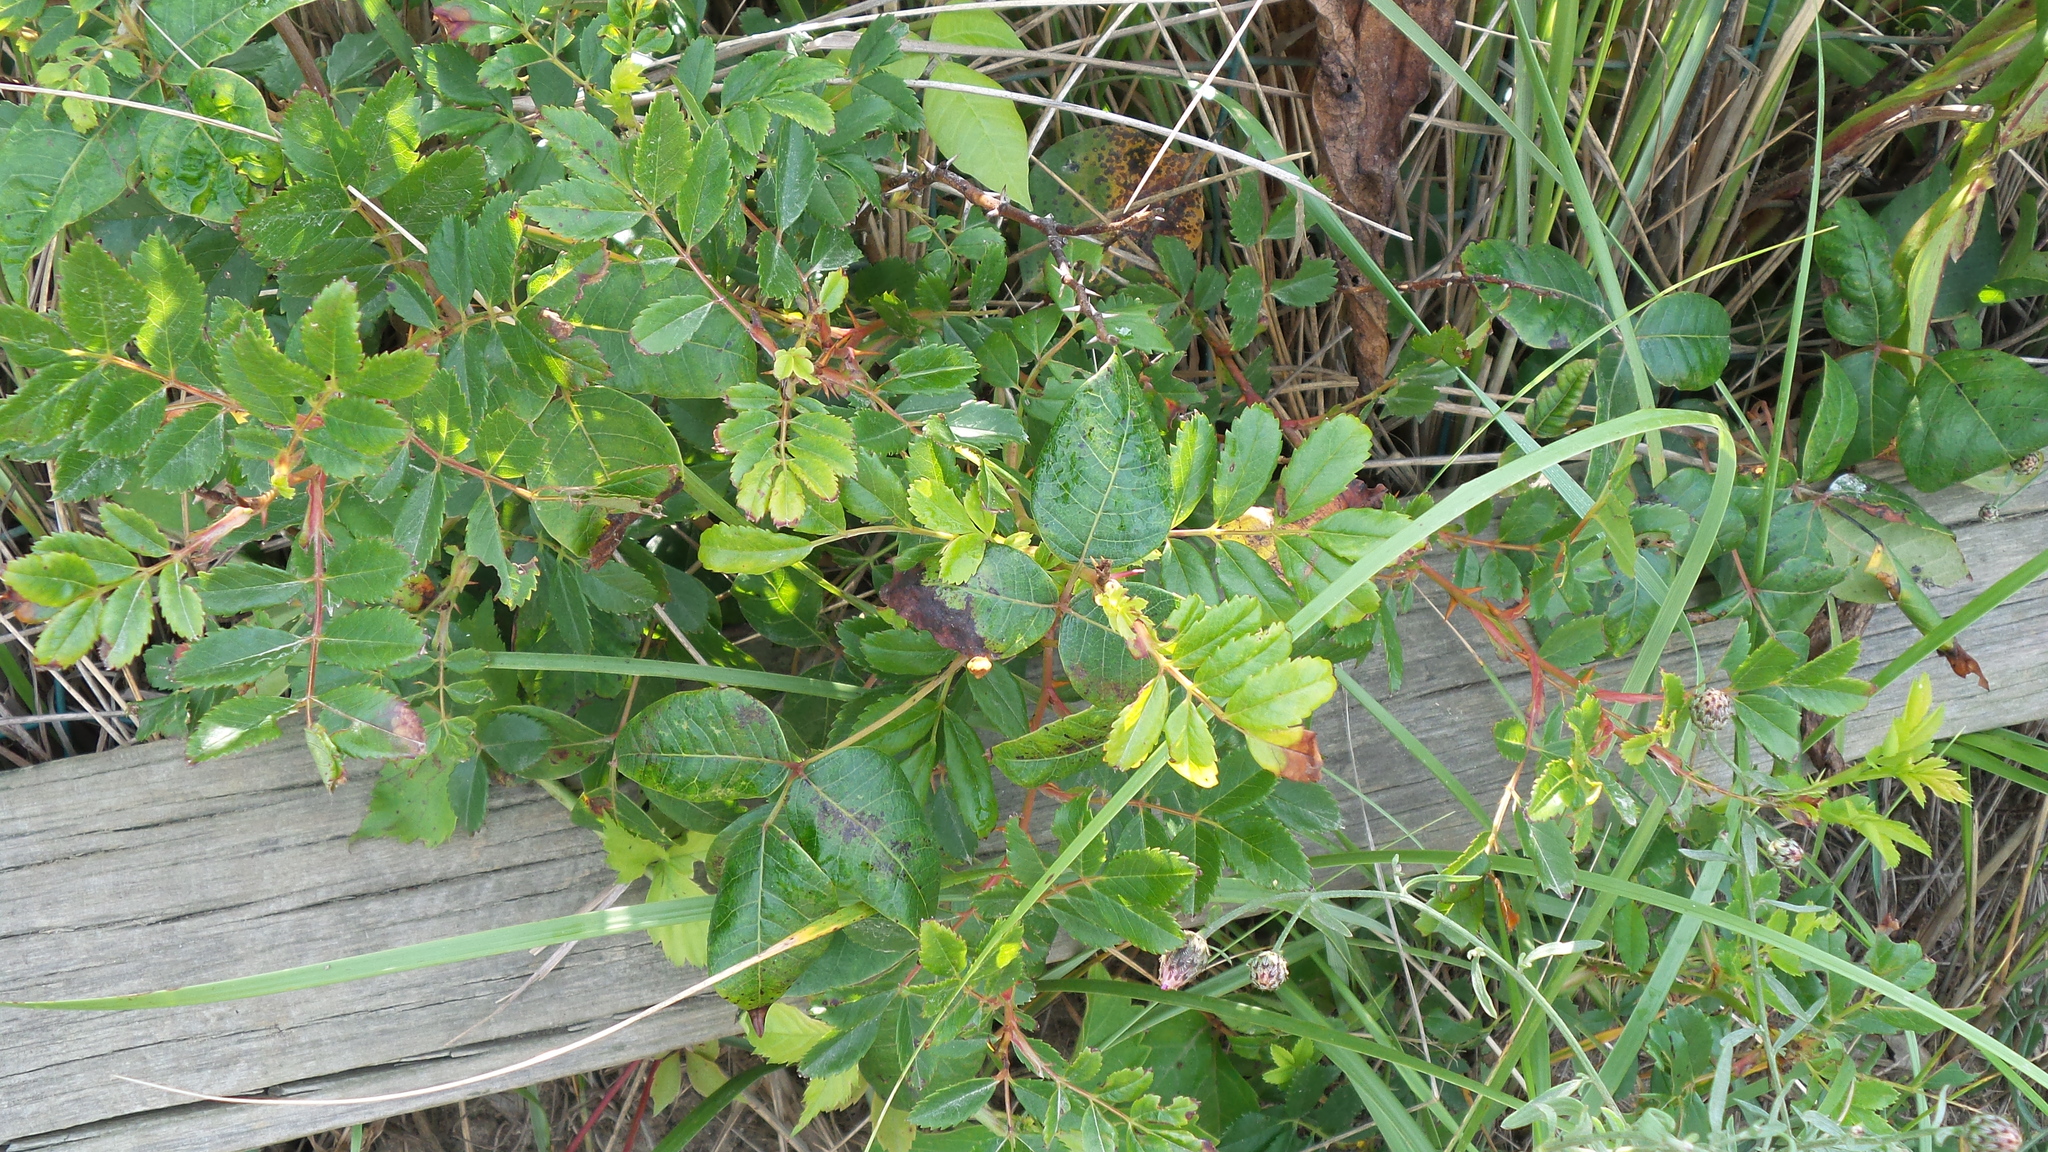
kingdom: Plantae
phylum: Tracheophyta
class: Magnoliopsida
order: Sapindales
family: Anacardiaceae
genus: Toxicodendron
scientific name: Toxicodendron radicans
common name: Poison ivy
